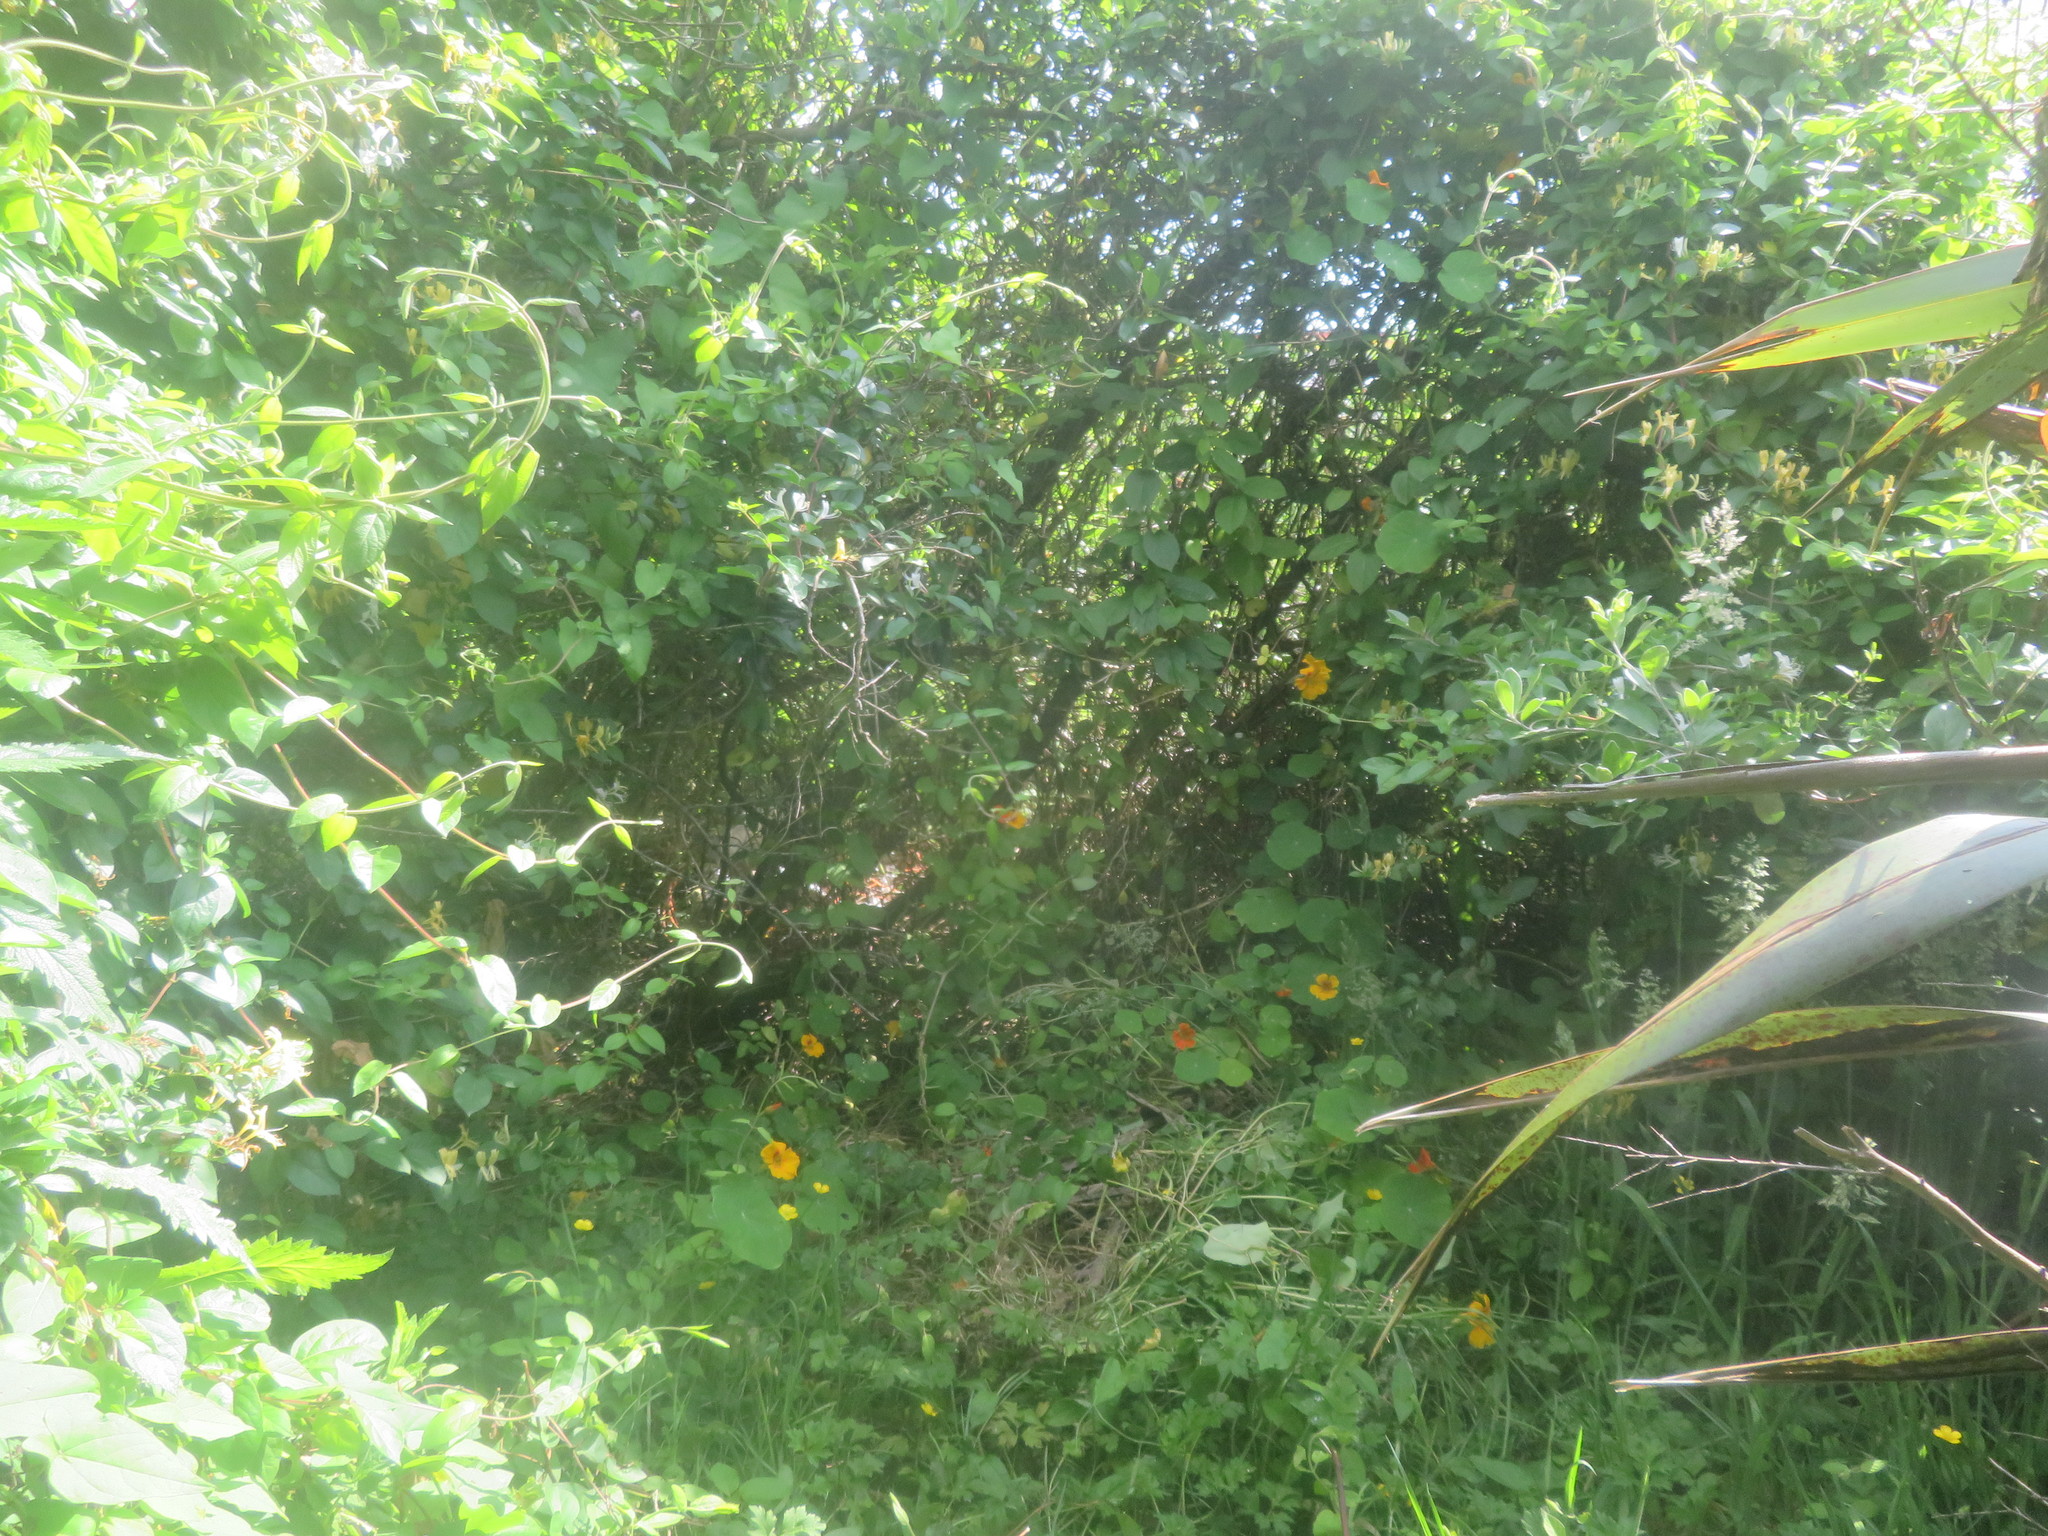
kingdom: Plantae
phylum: Tracheophyta
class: Magnoliopsida
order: Brassicales
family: Tropaeolaceae
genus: Tropaeolum
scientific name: Tropaeolum majus
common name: Nasturtium
